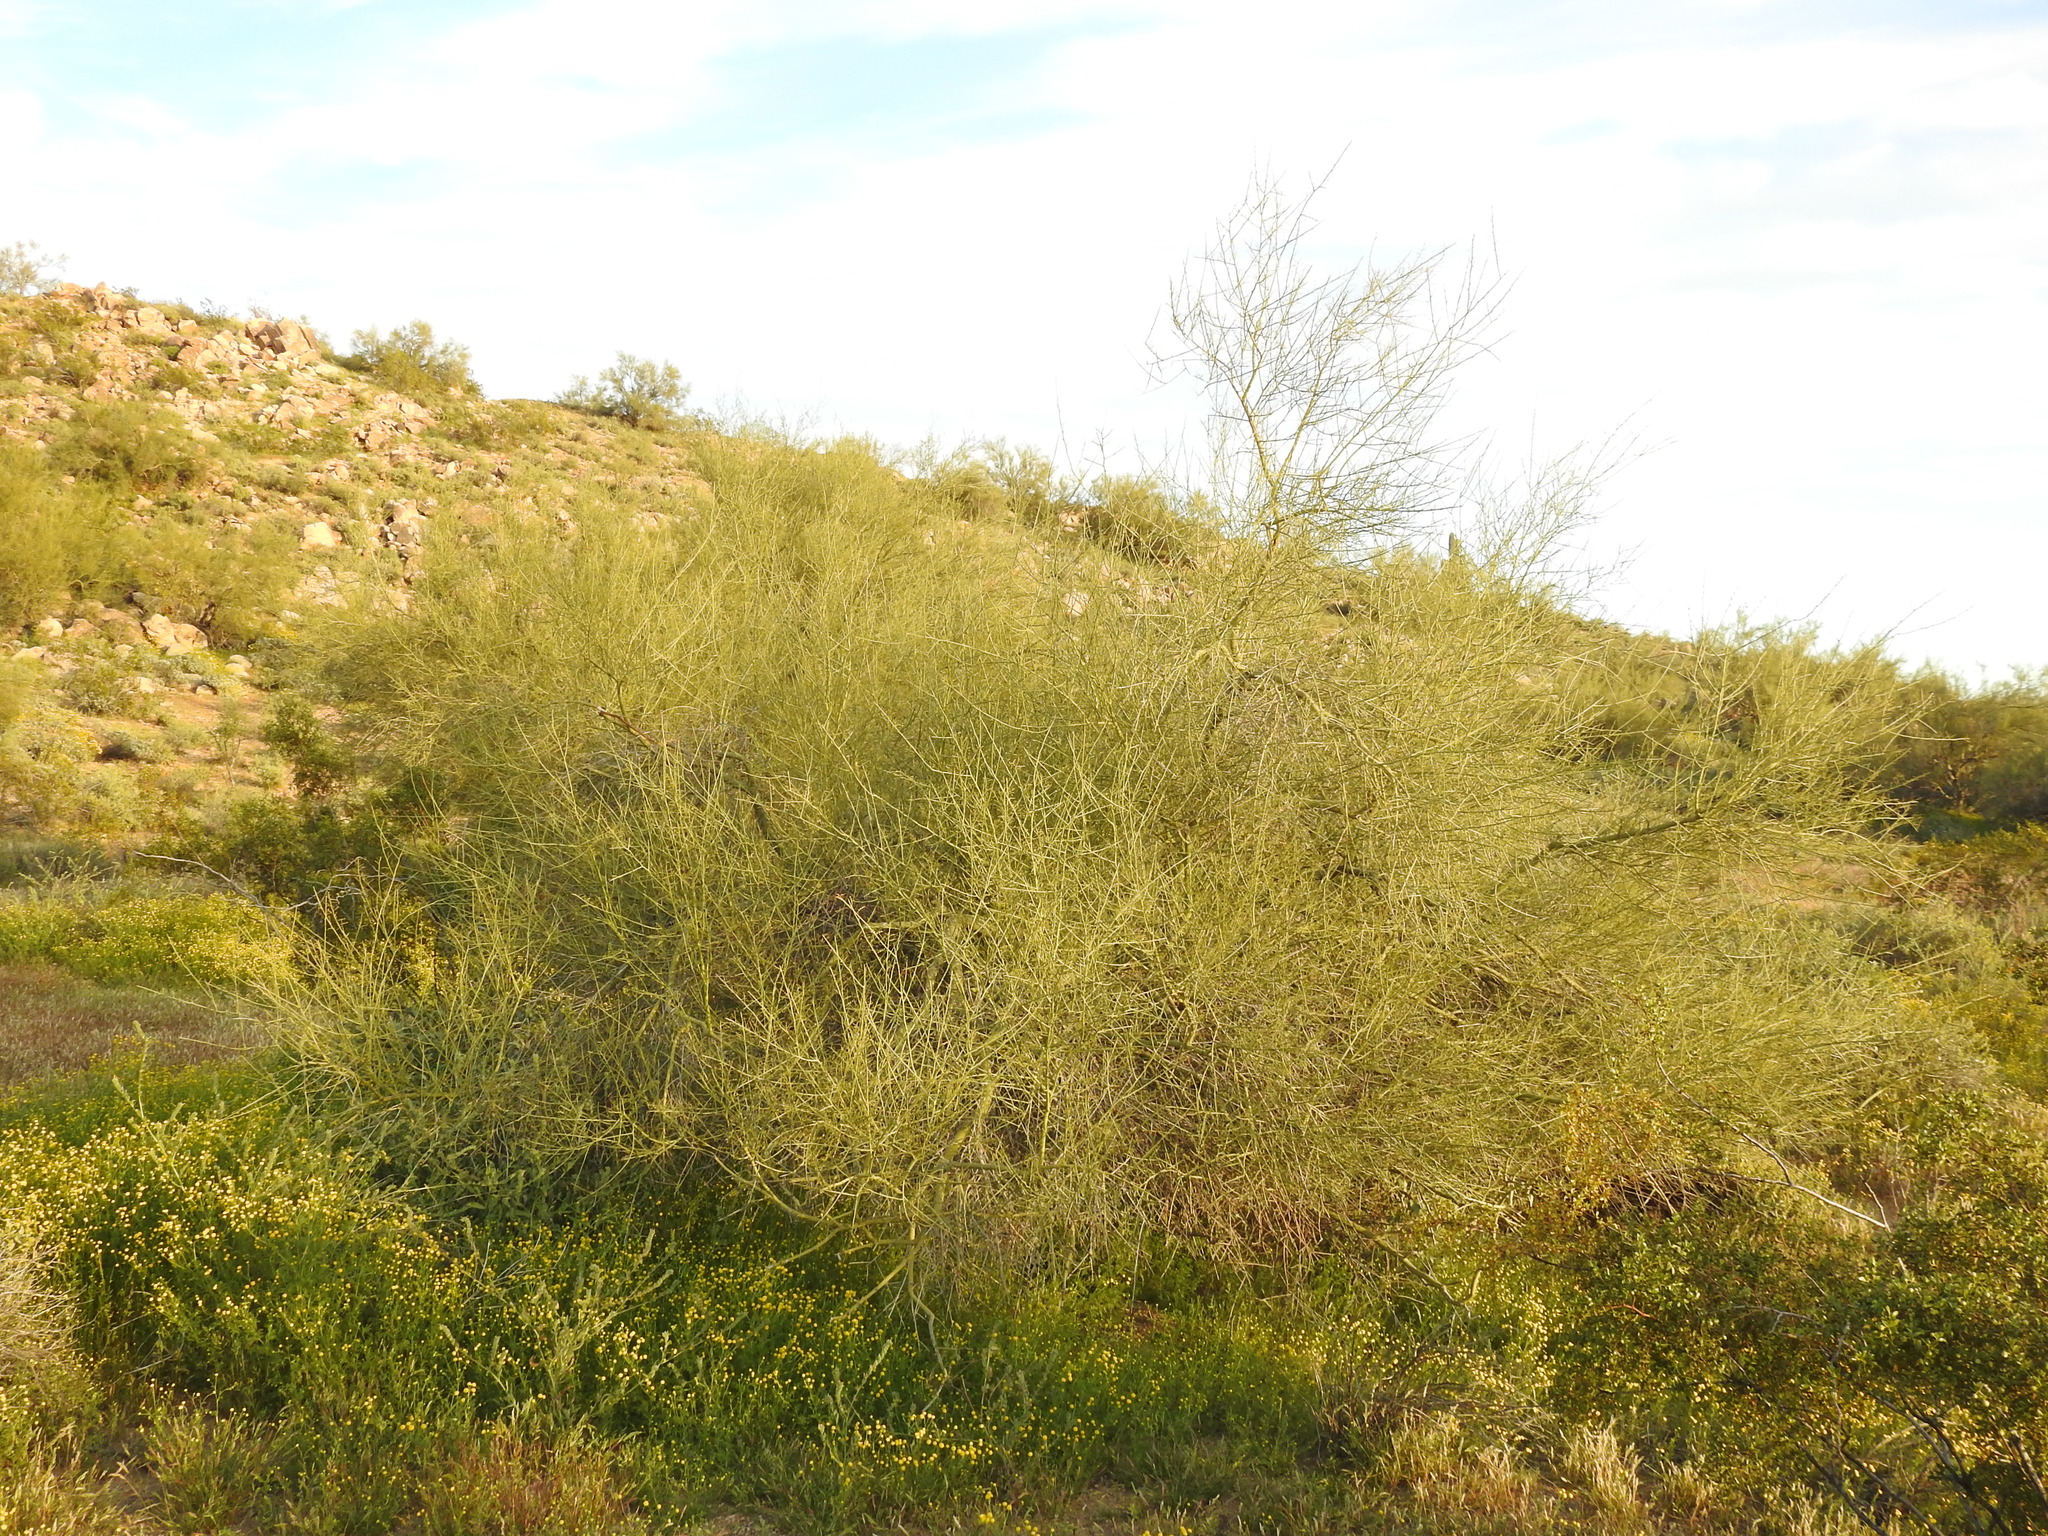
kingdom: Plantae
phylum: Tracheophyta
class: Magnoliopsida
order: Fabales
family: Fabaceae
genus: Parkinsonia
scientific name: Parkinsonia microphylla
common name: Yellow paloverde
